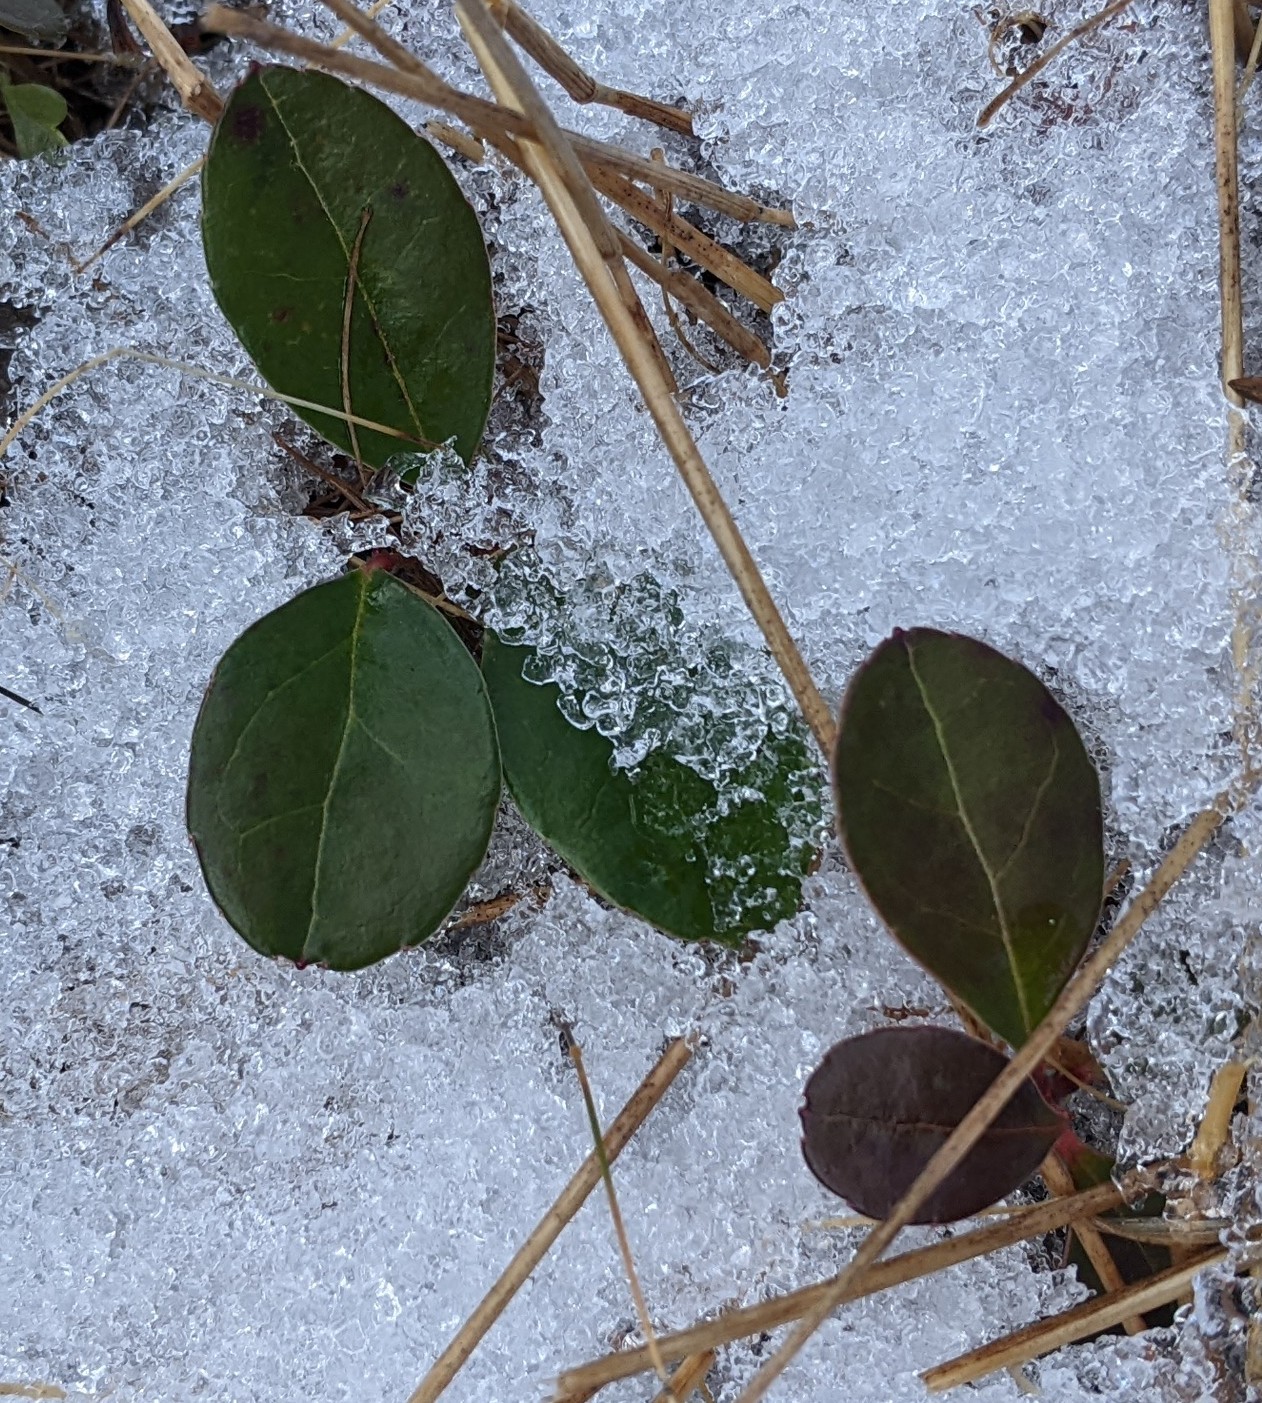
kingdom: Plantae
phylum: Tracheophyta
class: Magnoliopsida
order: Ericales
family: Ericaceae
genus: Gaultheria
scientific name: Gaultheria procumbens
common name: Checkerberry
